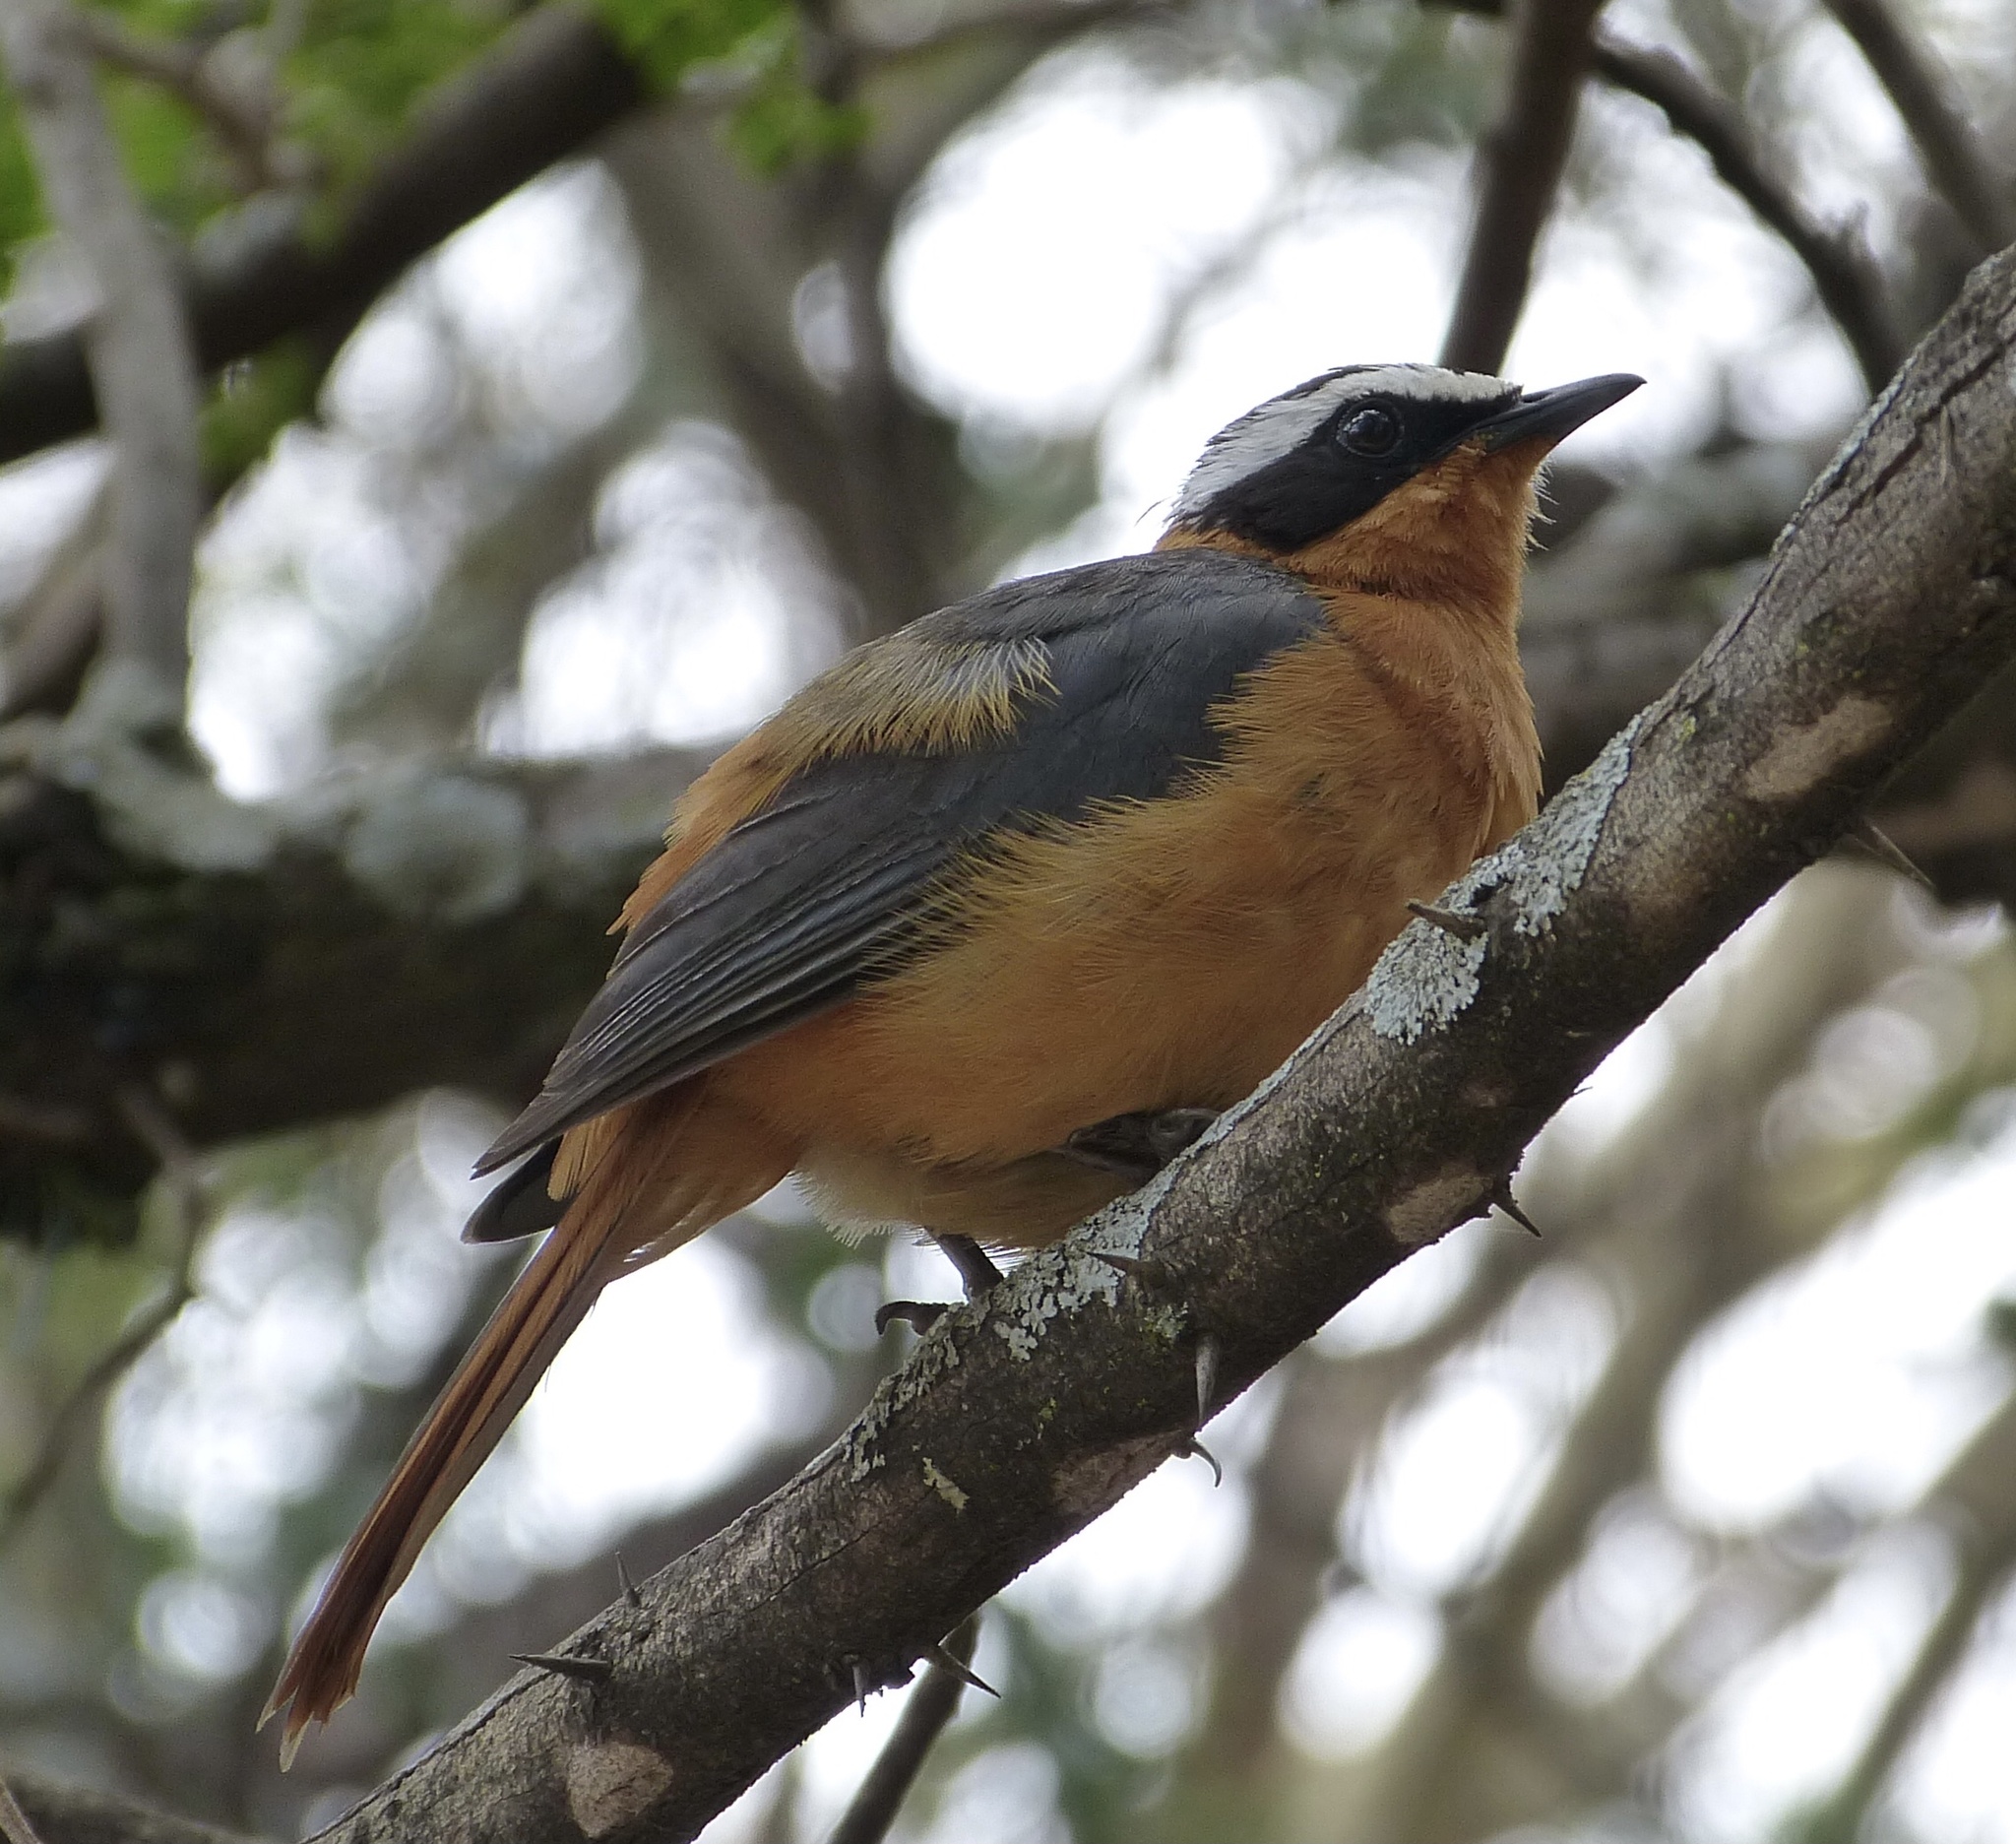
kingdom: Animalia
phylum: Chordata
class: Aves
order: Passeriformes
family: Muscicapidae
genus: Cossypha
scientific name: Cossypha heuglini
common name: White-browed robin-chat
